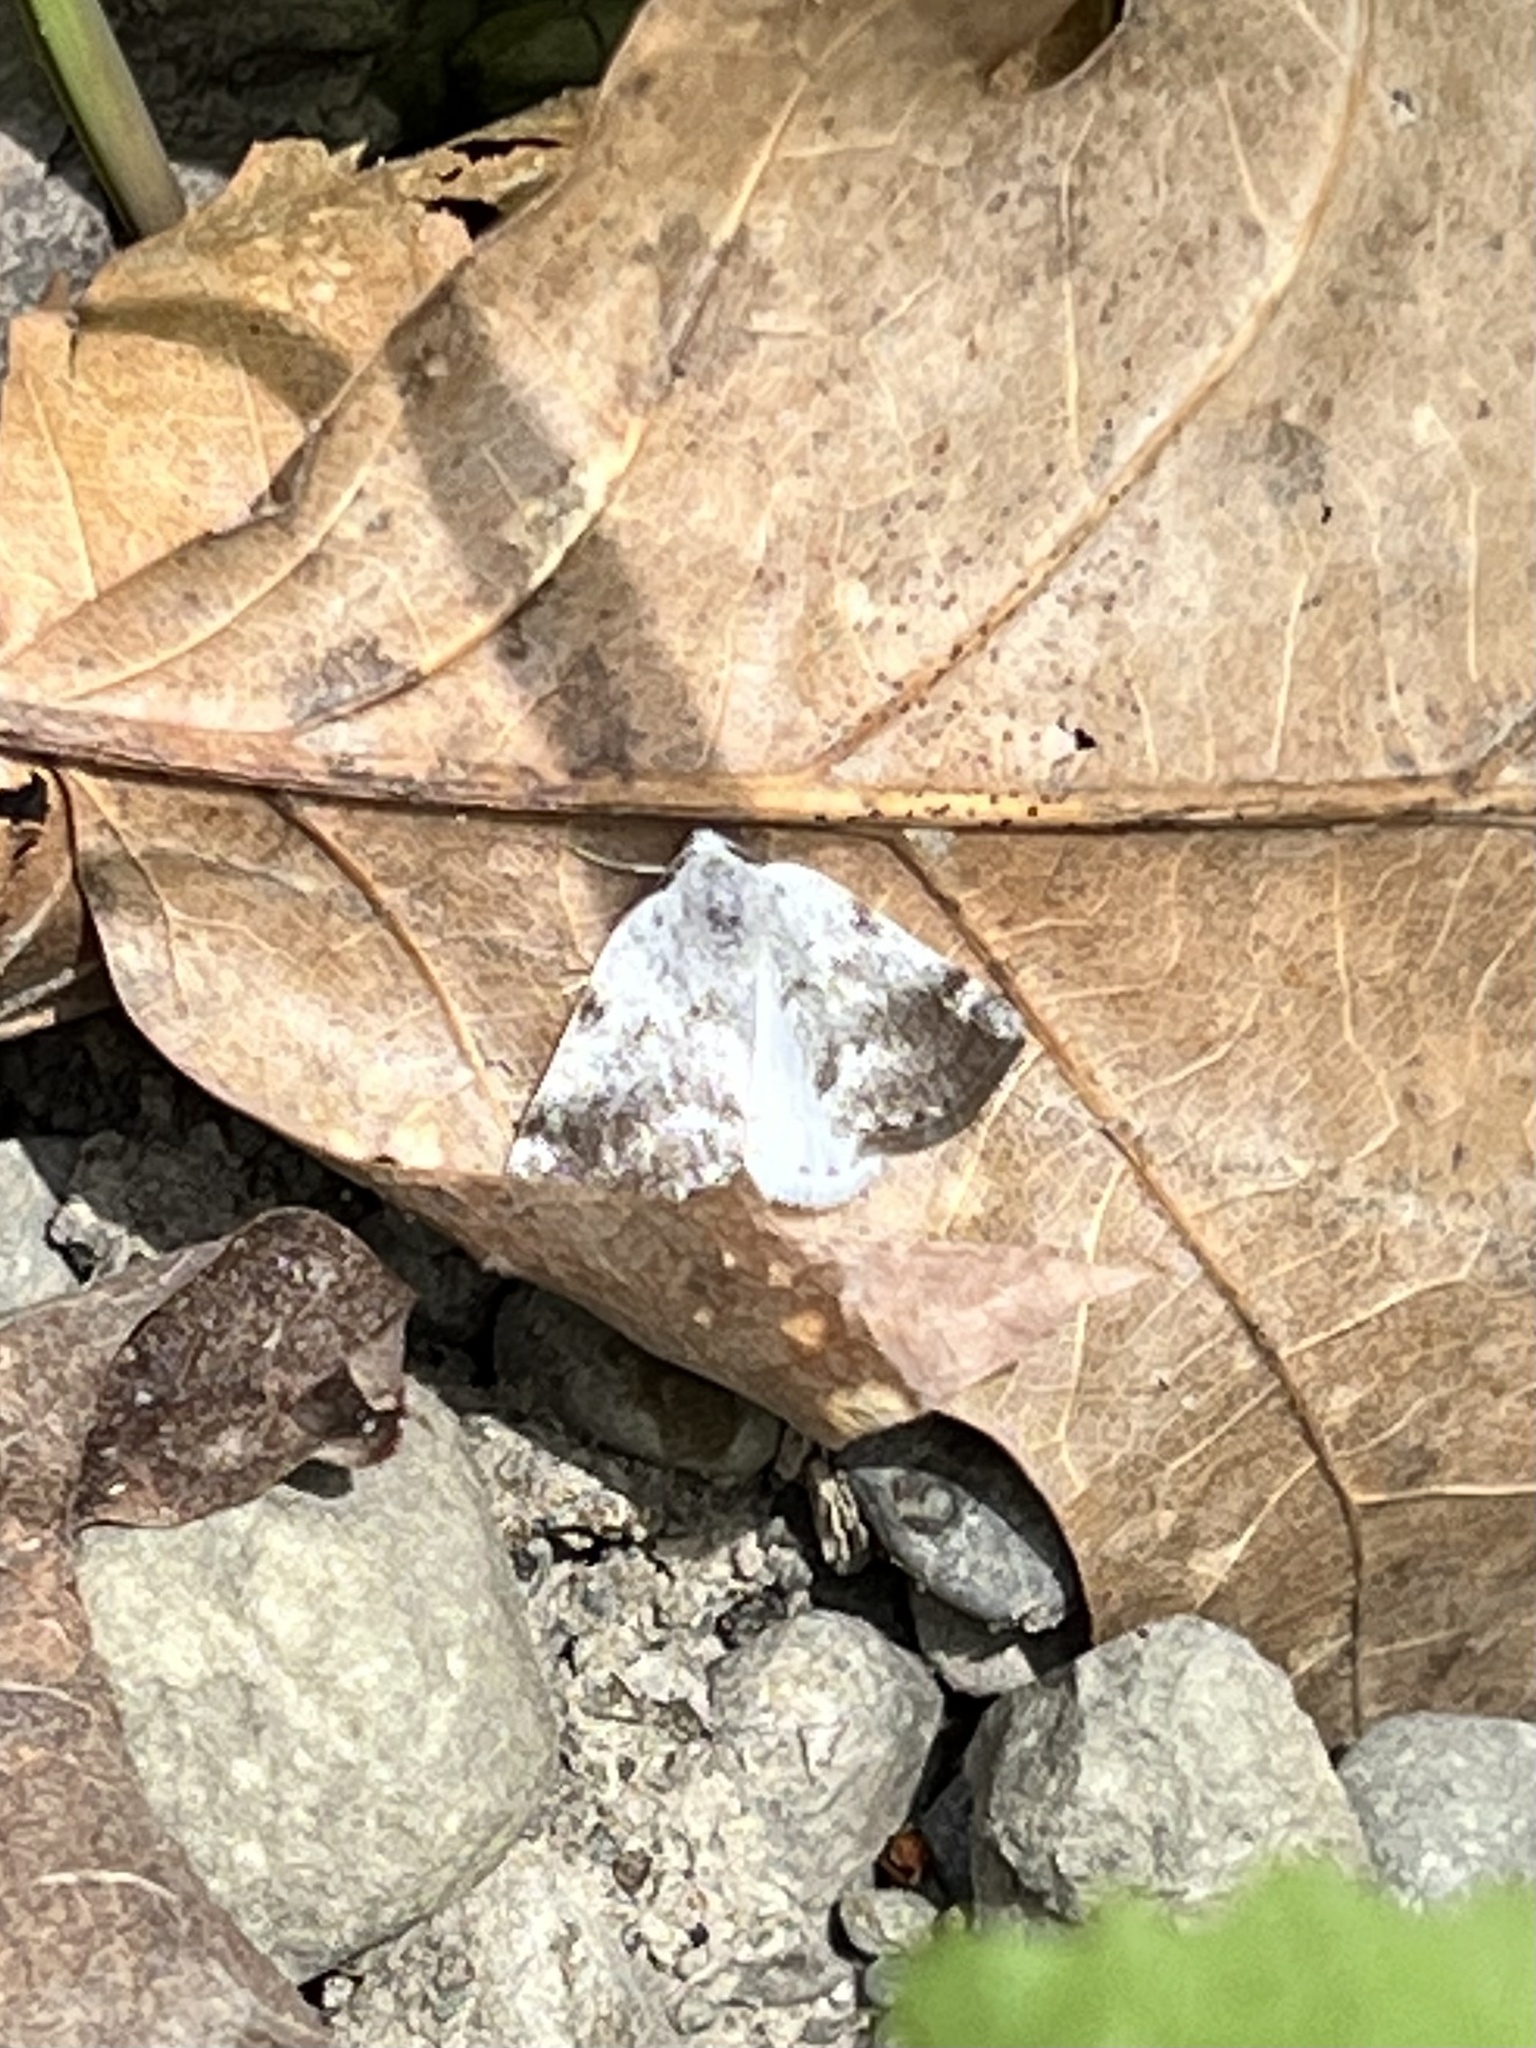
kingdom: Animalia
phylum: Arthropoda
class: Insecta
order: Lepidoptera
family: Geometridae
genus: Lomographa
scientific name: Lomographa semiclarata
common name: Bluish spring moth
